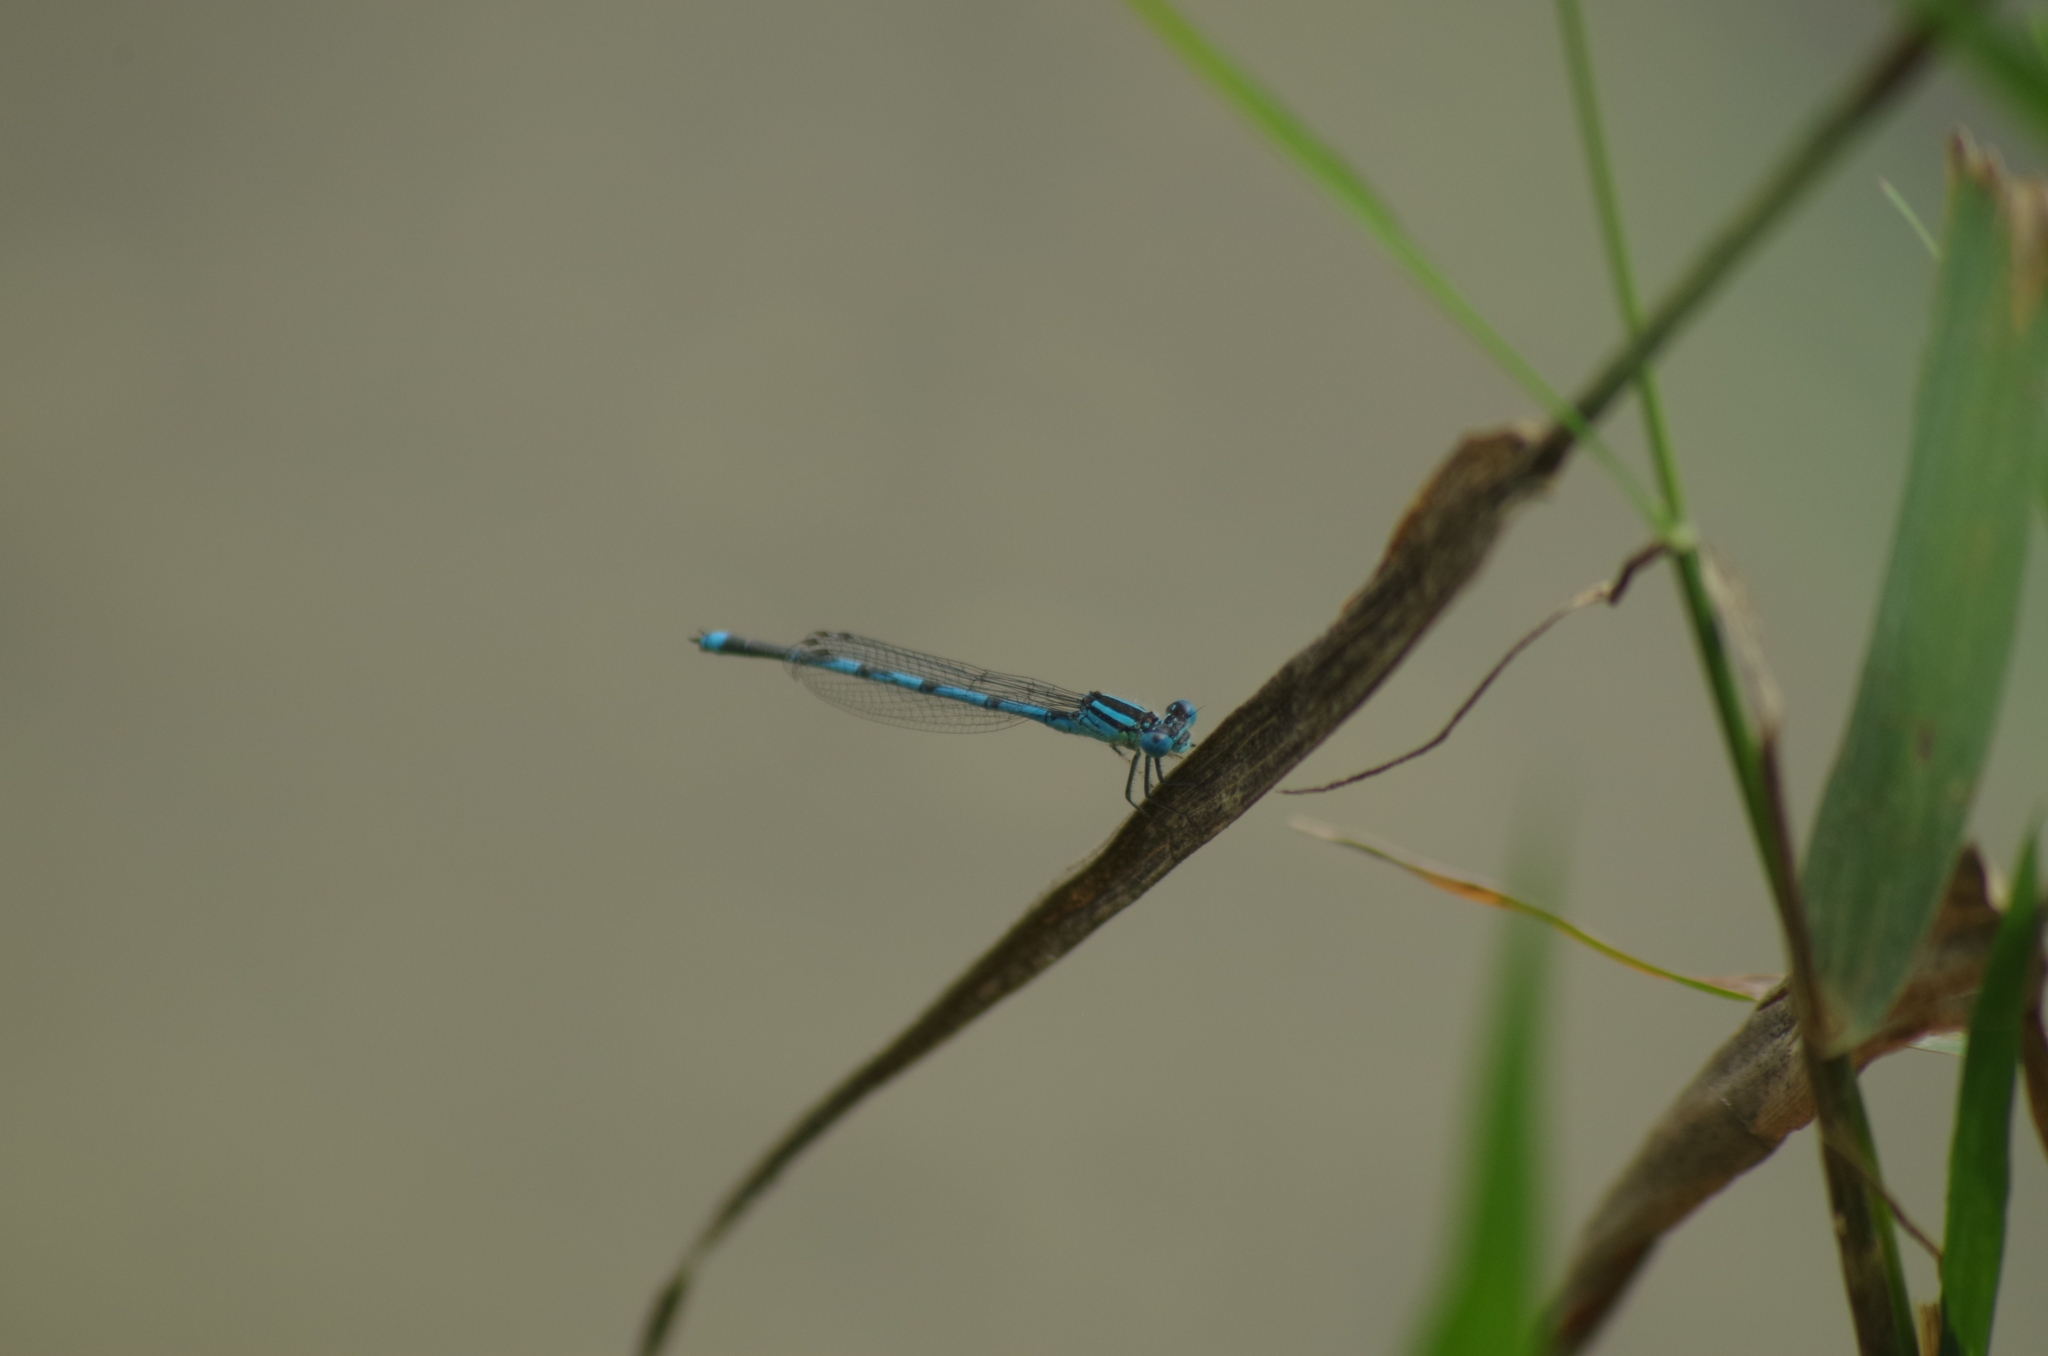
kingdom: Animalia
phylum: Arthropoda
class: Insecta
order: Odonata
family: Coenagrionidae
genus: Erythromma
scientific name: Erythromma lindenii
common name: Blue-eye
